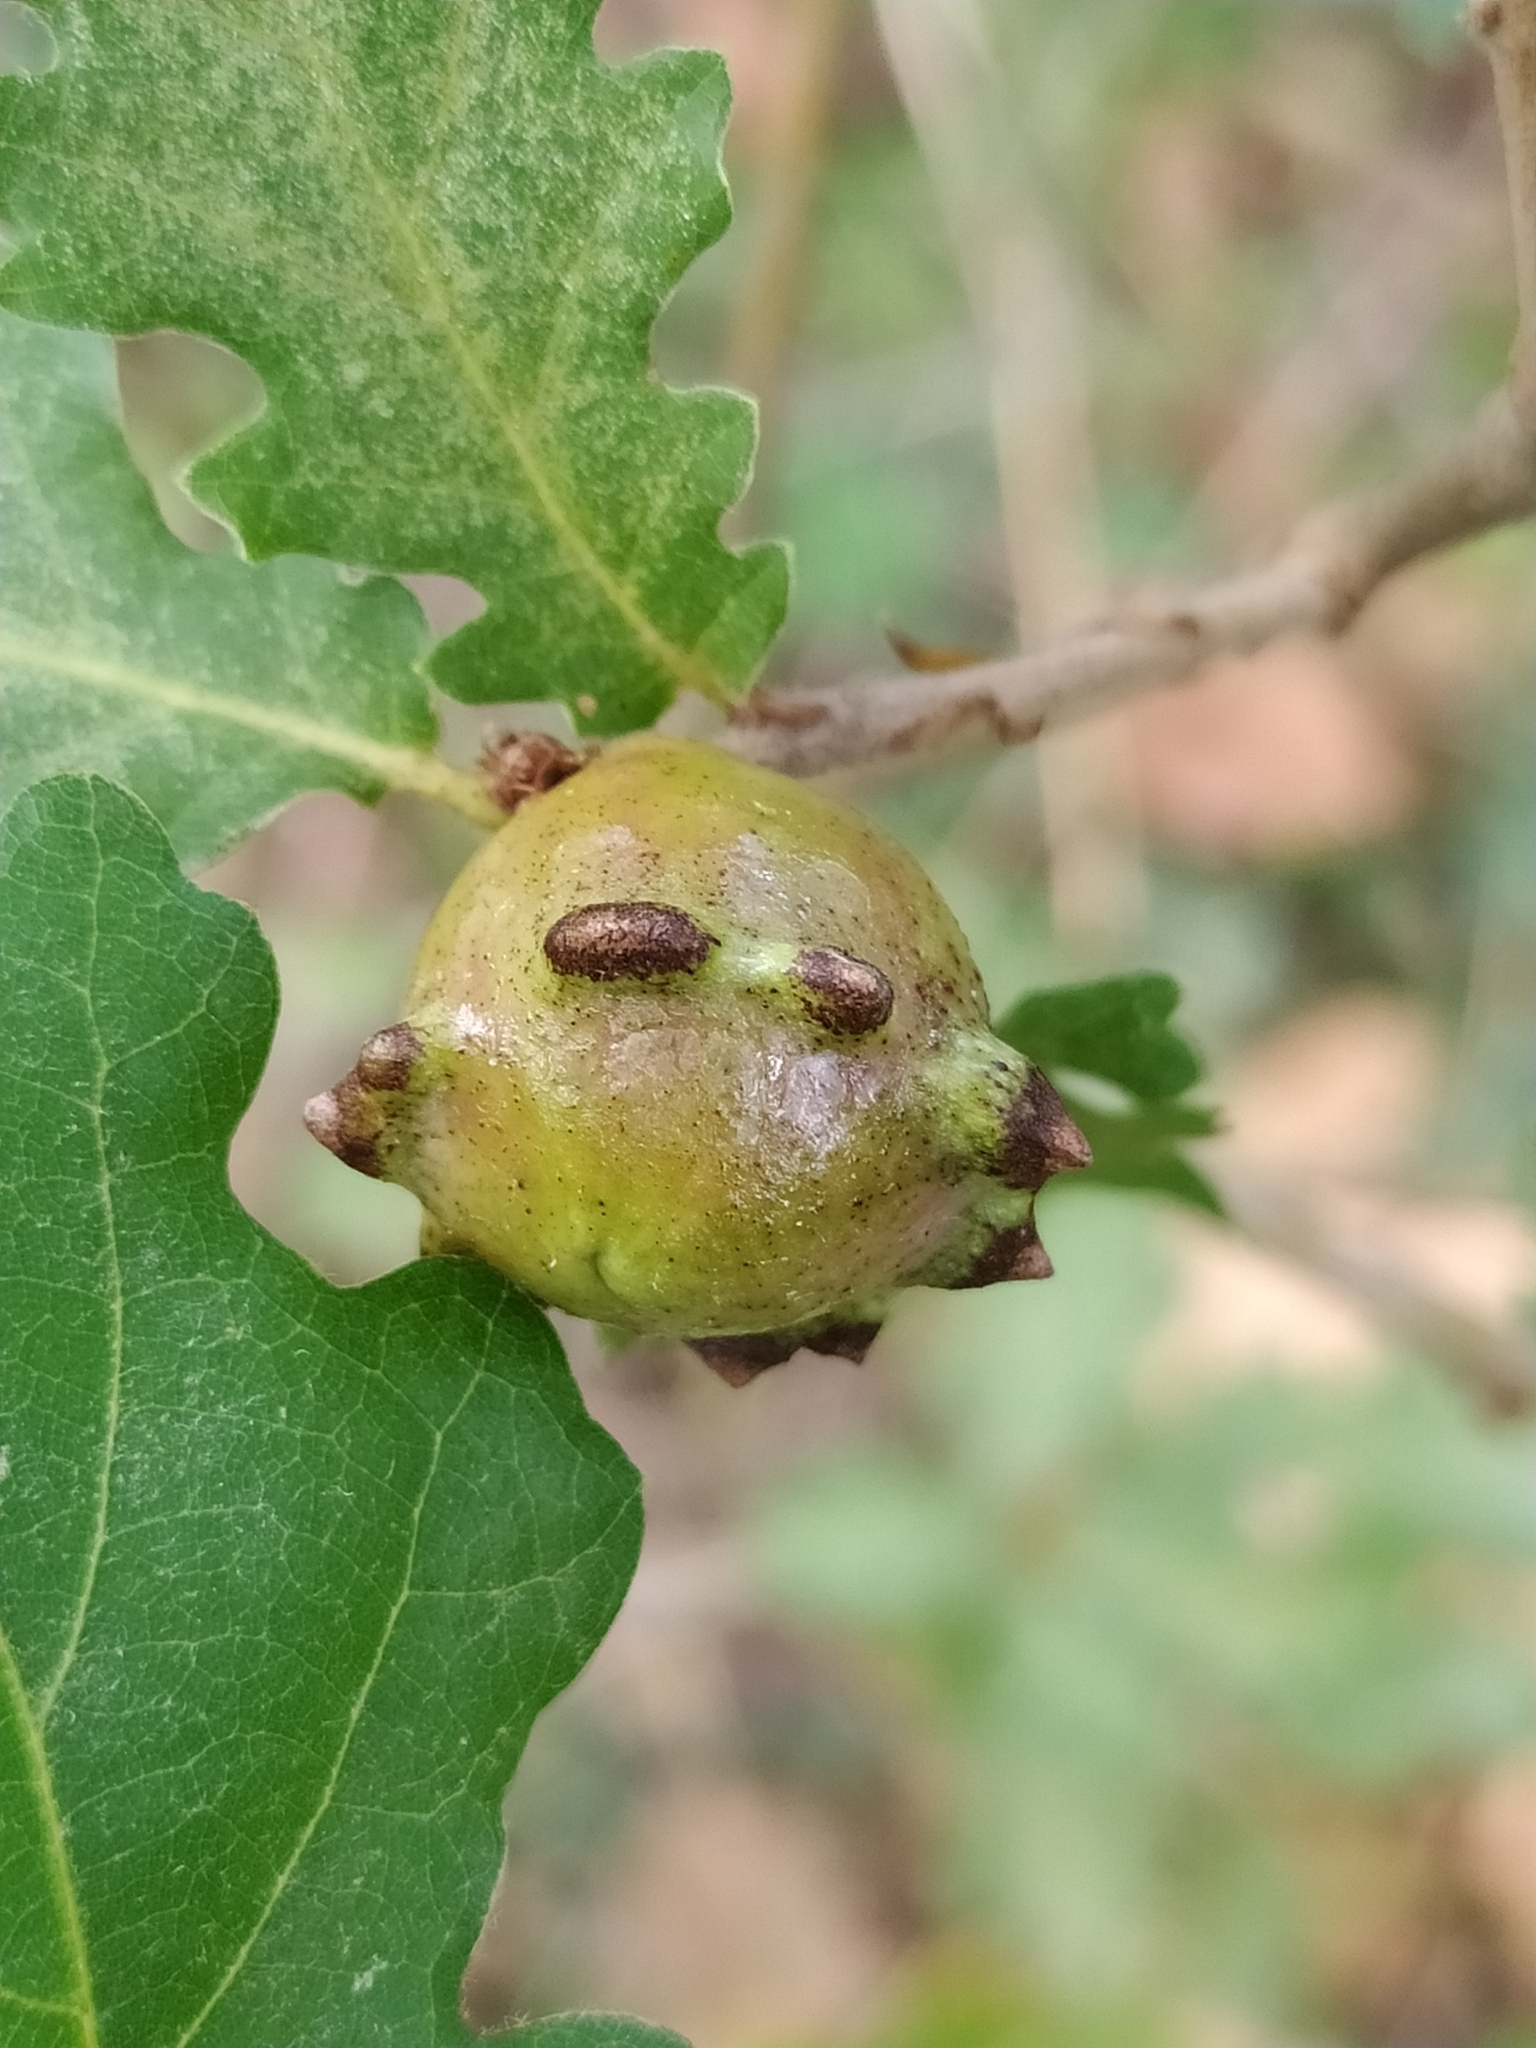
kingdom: Animalia
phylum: Arthropoda
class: Insecta
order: Hymenoptera
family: Cynipidae
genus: Andricus
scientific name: Andricus quercustozae
